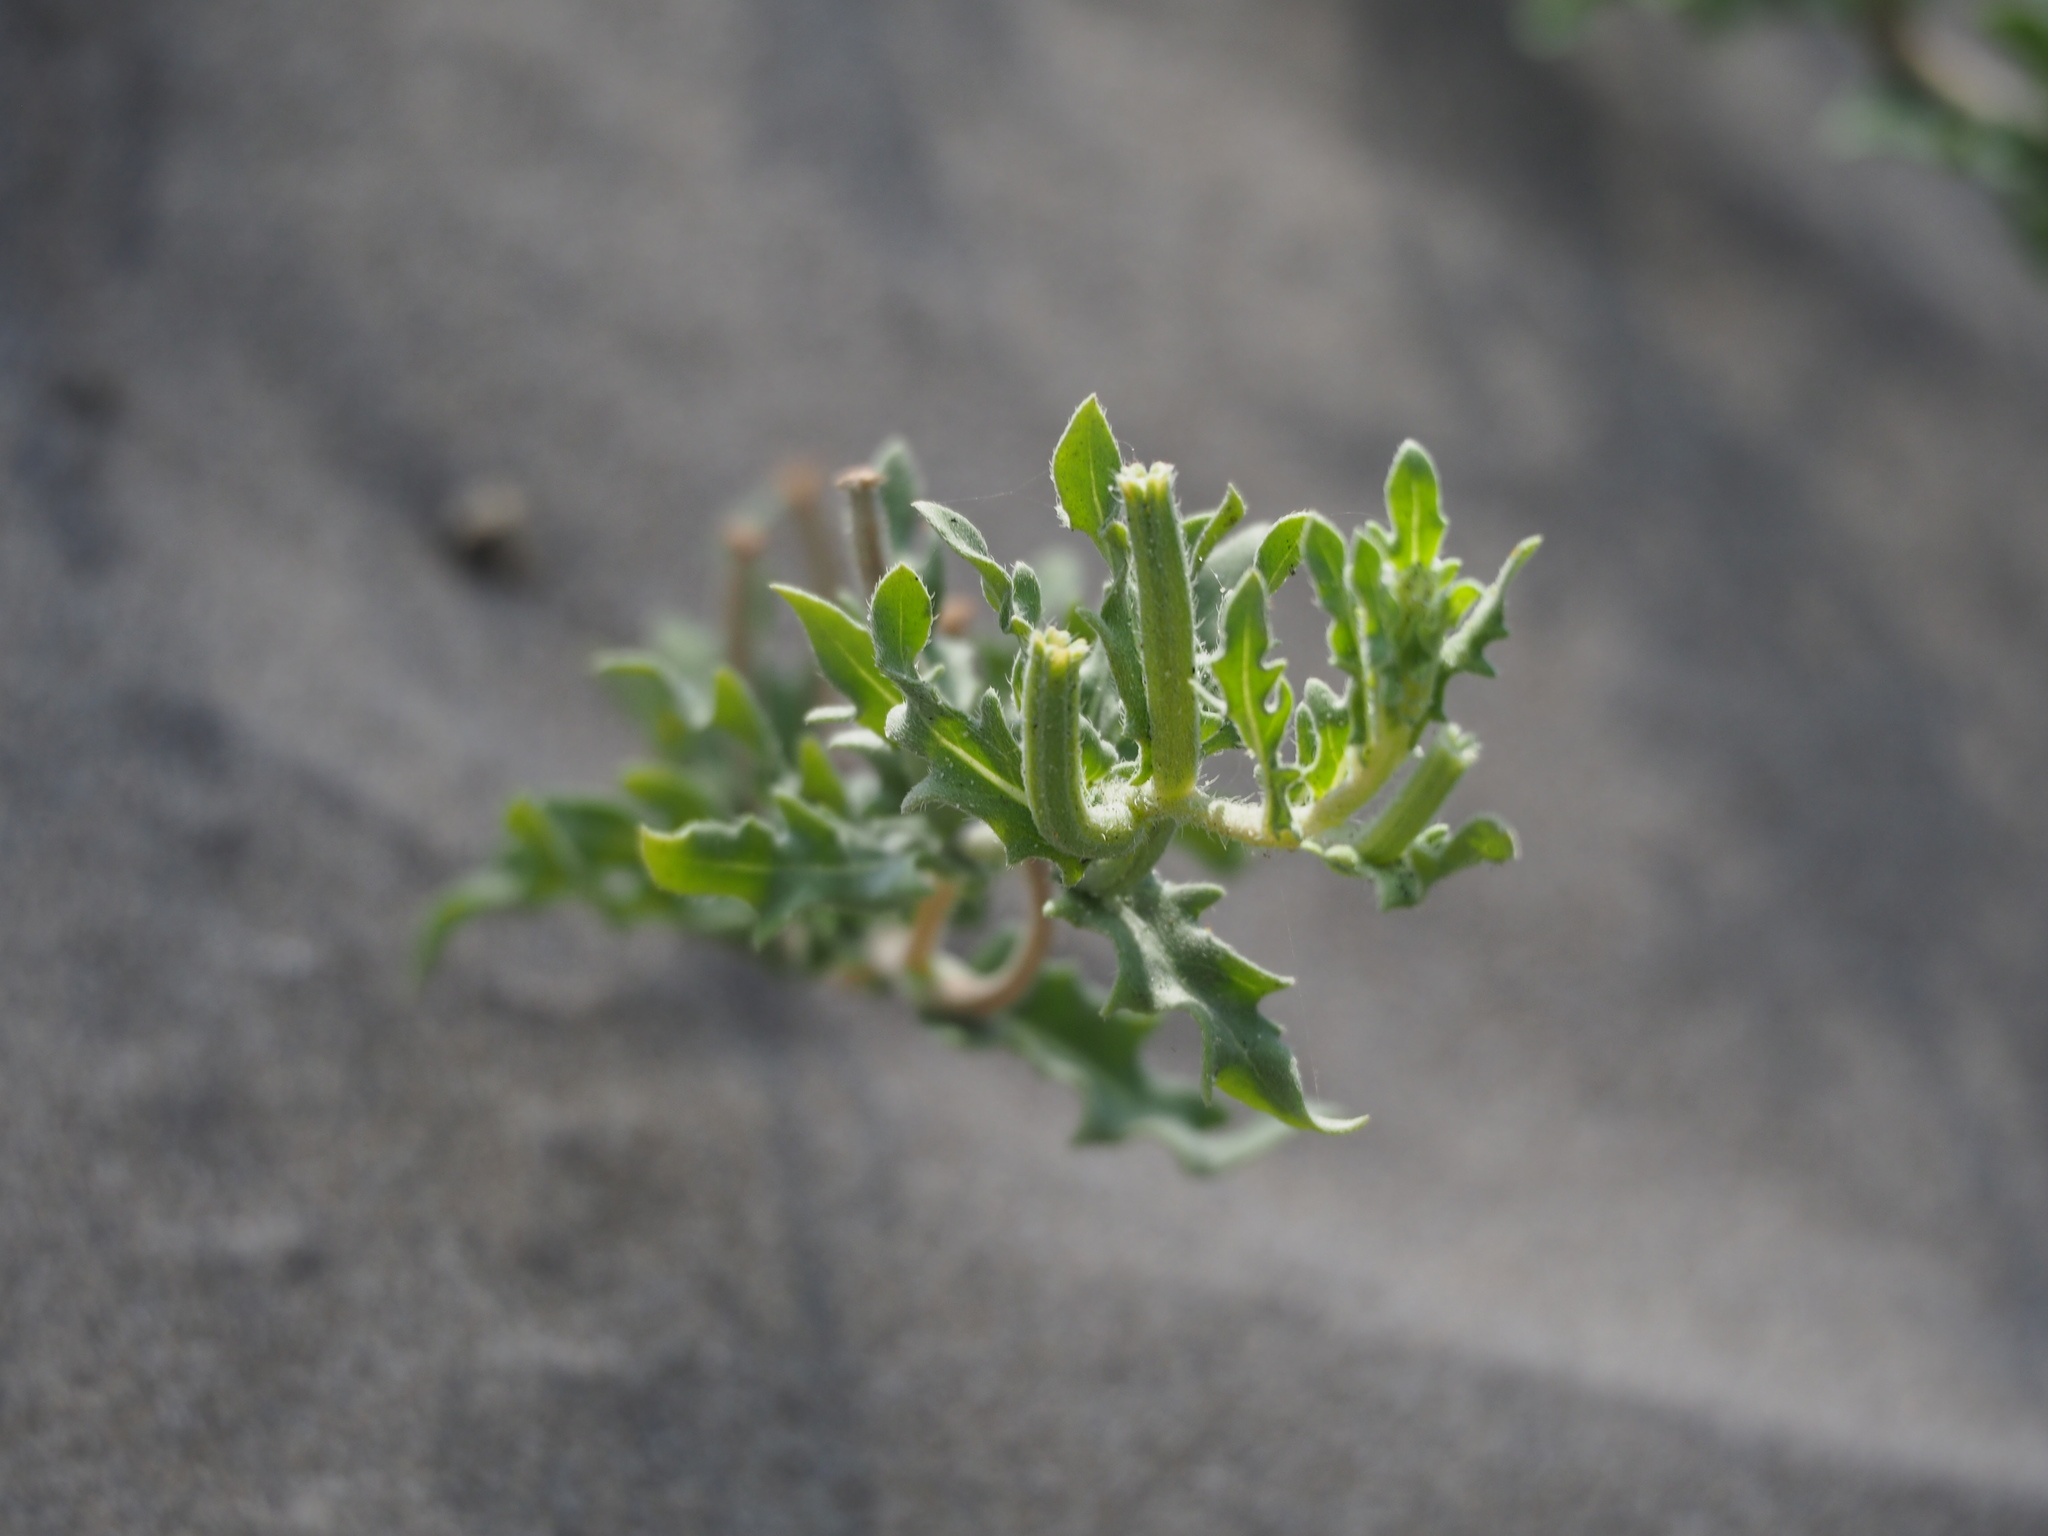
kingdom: Plantae
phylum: Tracheophyta
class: Magnoliopsida
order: Myrtales
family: Onagraceae
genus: Oenothera
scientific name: Oenothera laciniata
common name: Cut-leaved evening-primrose
